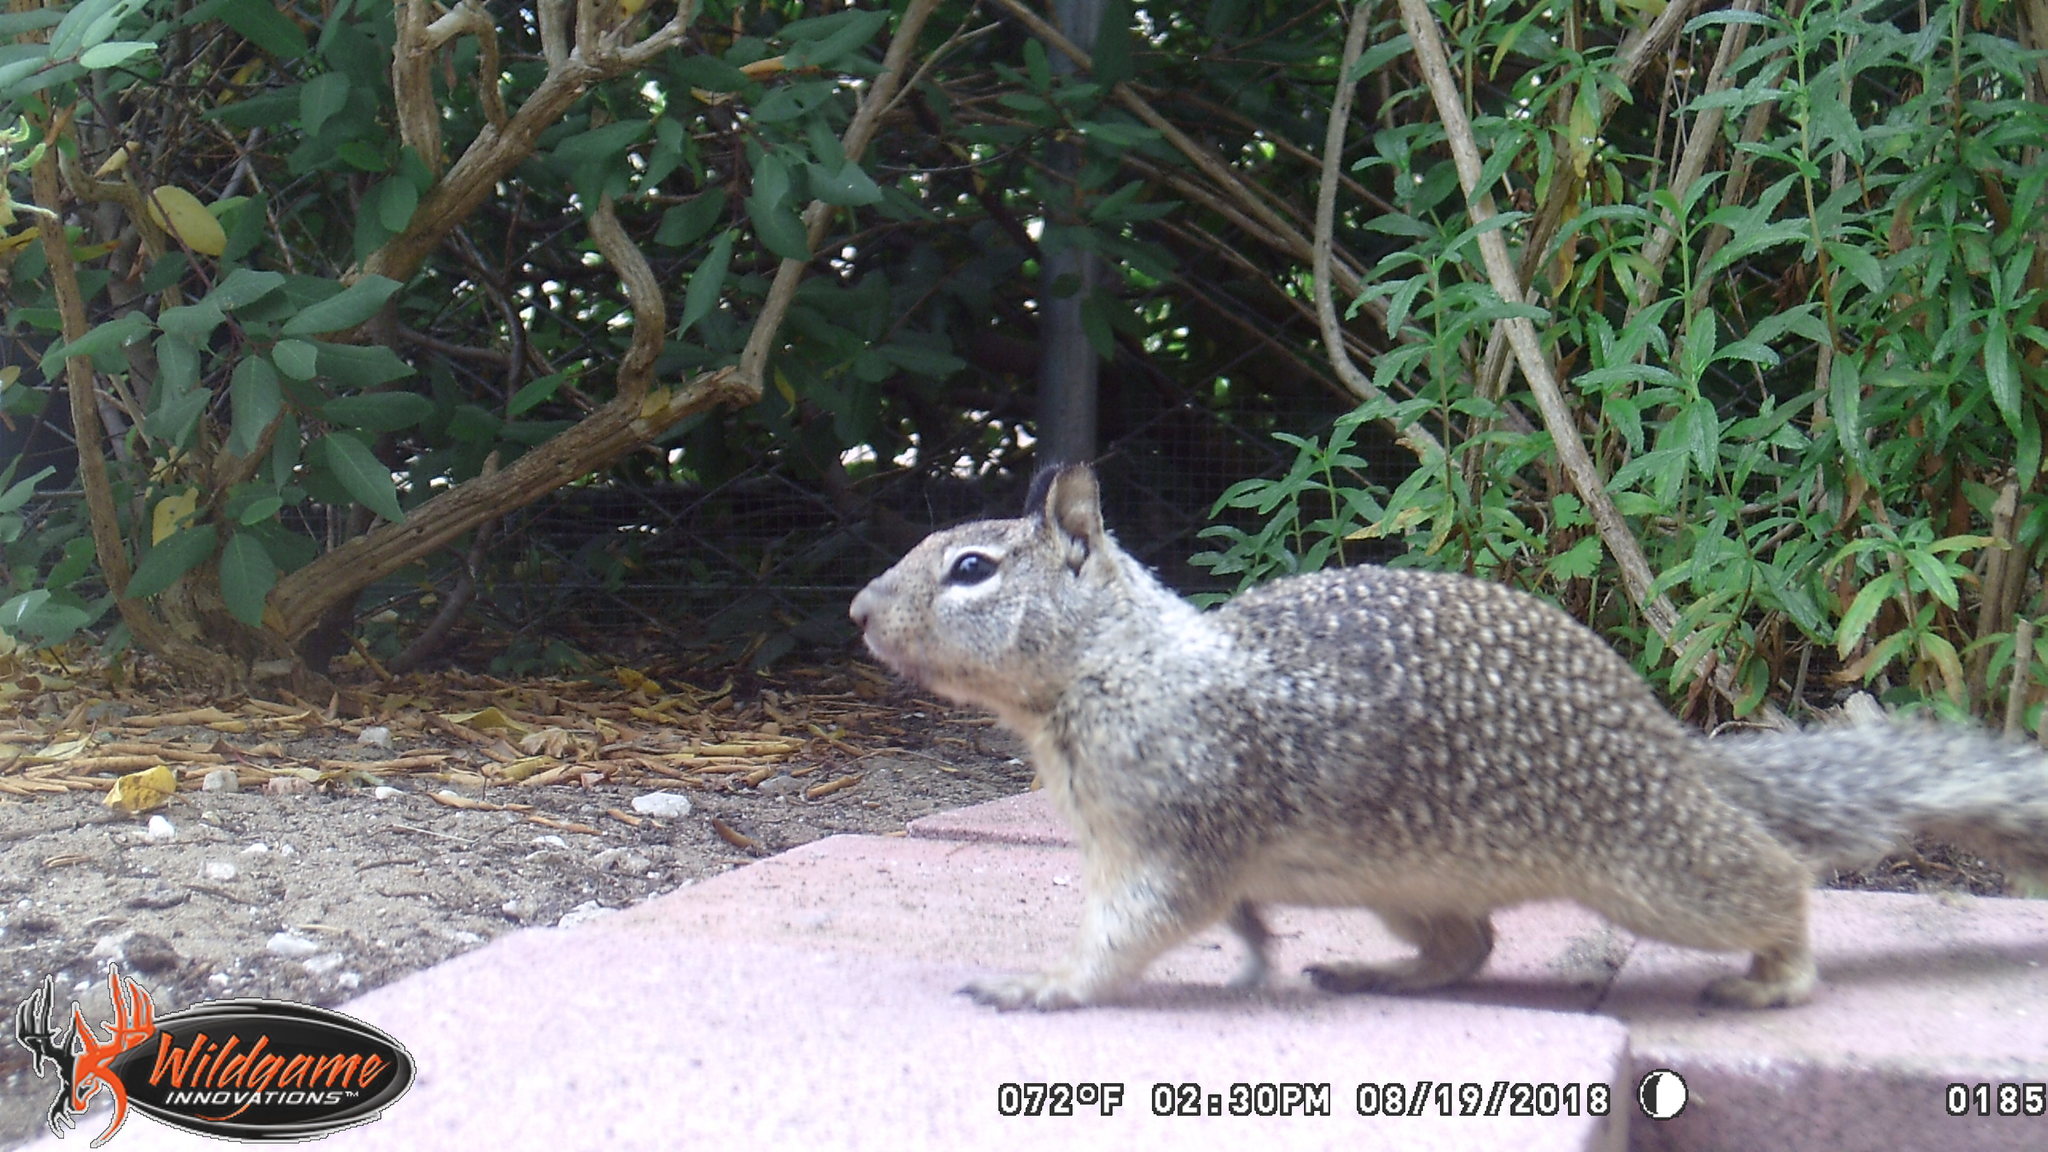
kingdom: Animalia
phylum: Chordata
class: Mammalia
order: Rodentia
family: Sciuridae
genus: Otospermophilus
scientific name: Otospermophilus beecheyi
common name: California ground squirrel
